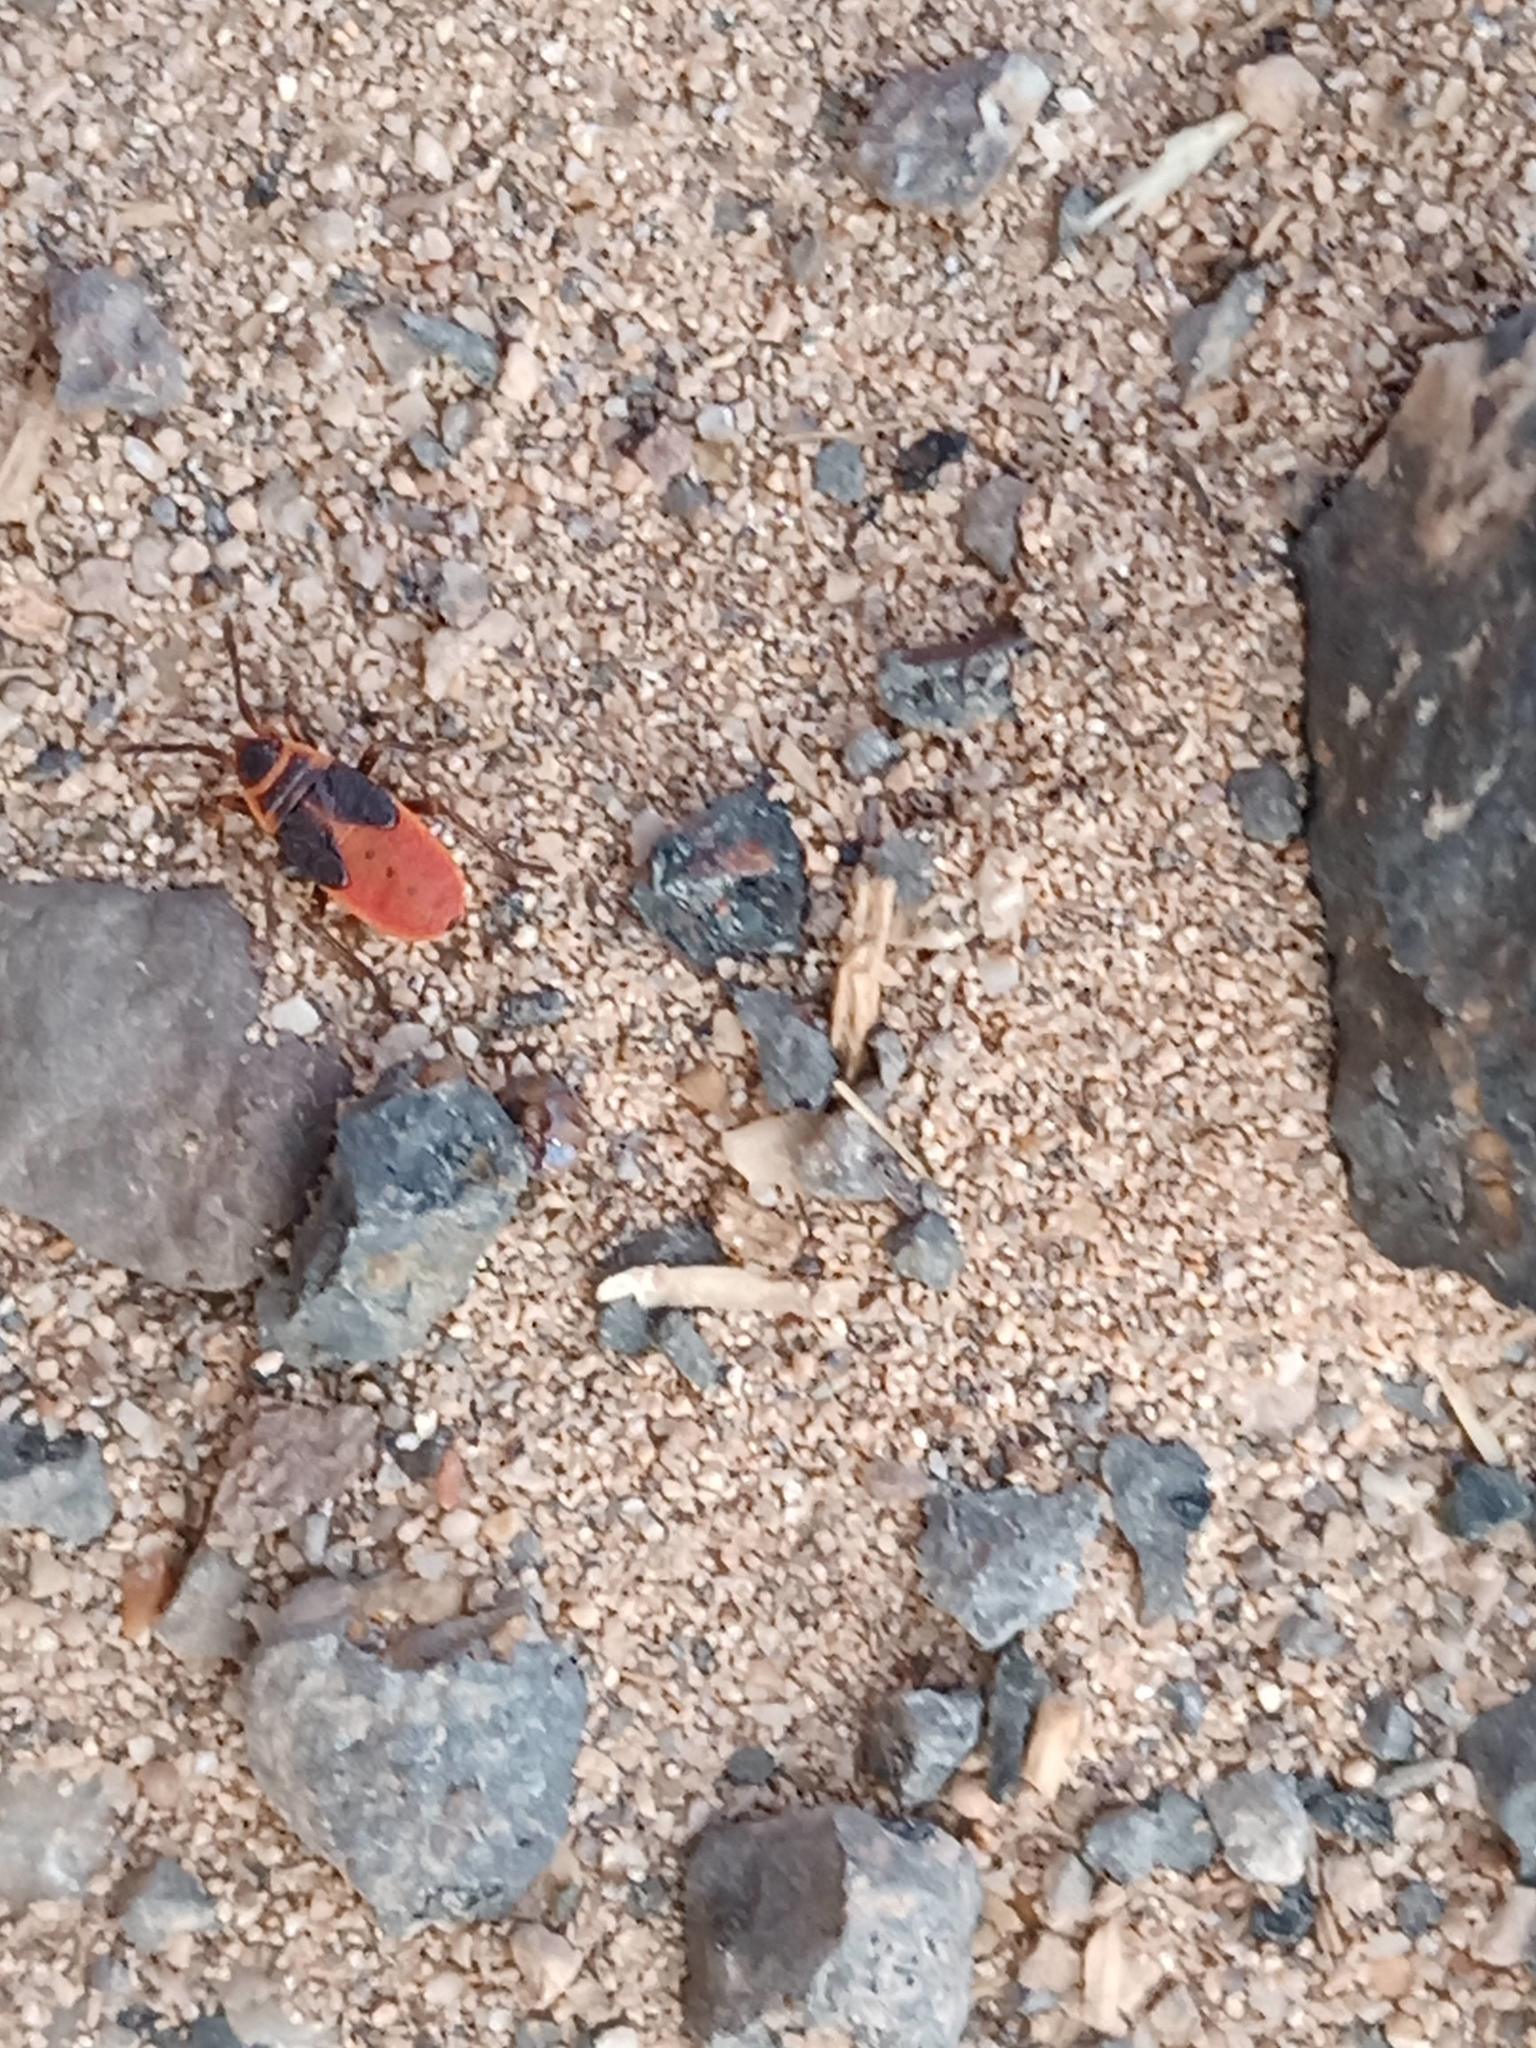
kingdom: Animalia
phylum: Arthropoda
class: Insecta
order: Hemiptera
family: Pyrrhocoridae
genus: Scantius
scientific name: Scantius aegyptius
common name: Red bug
